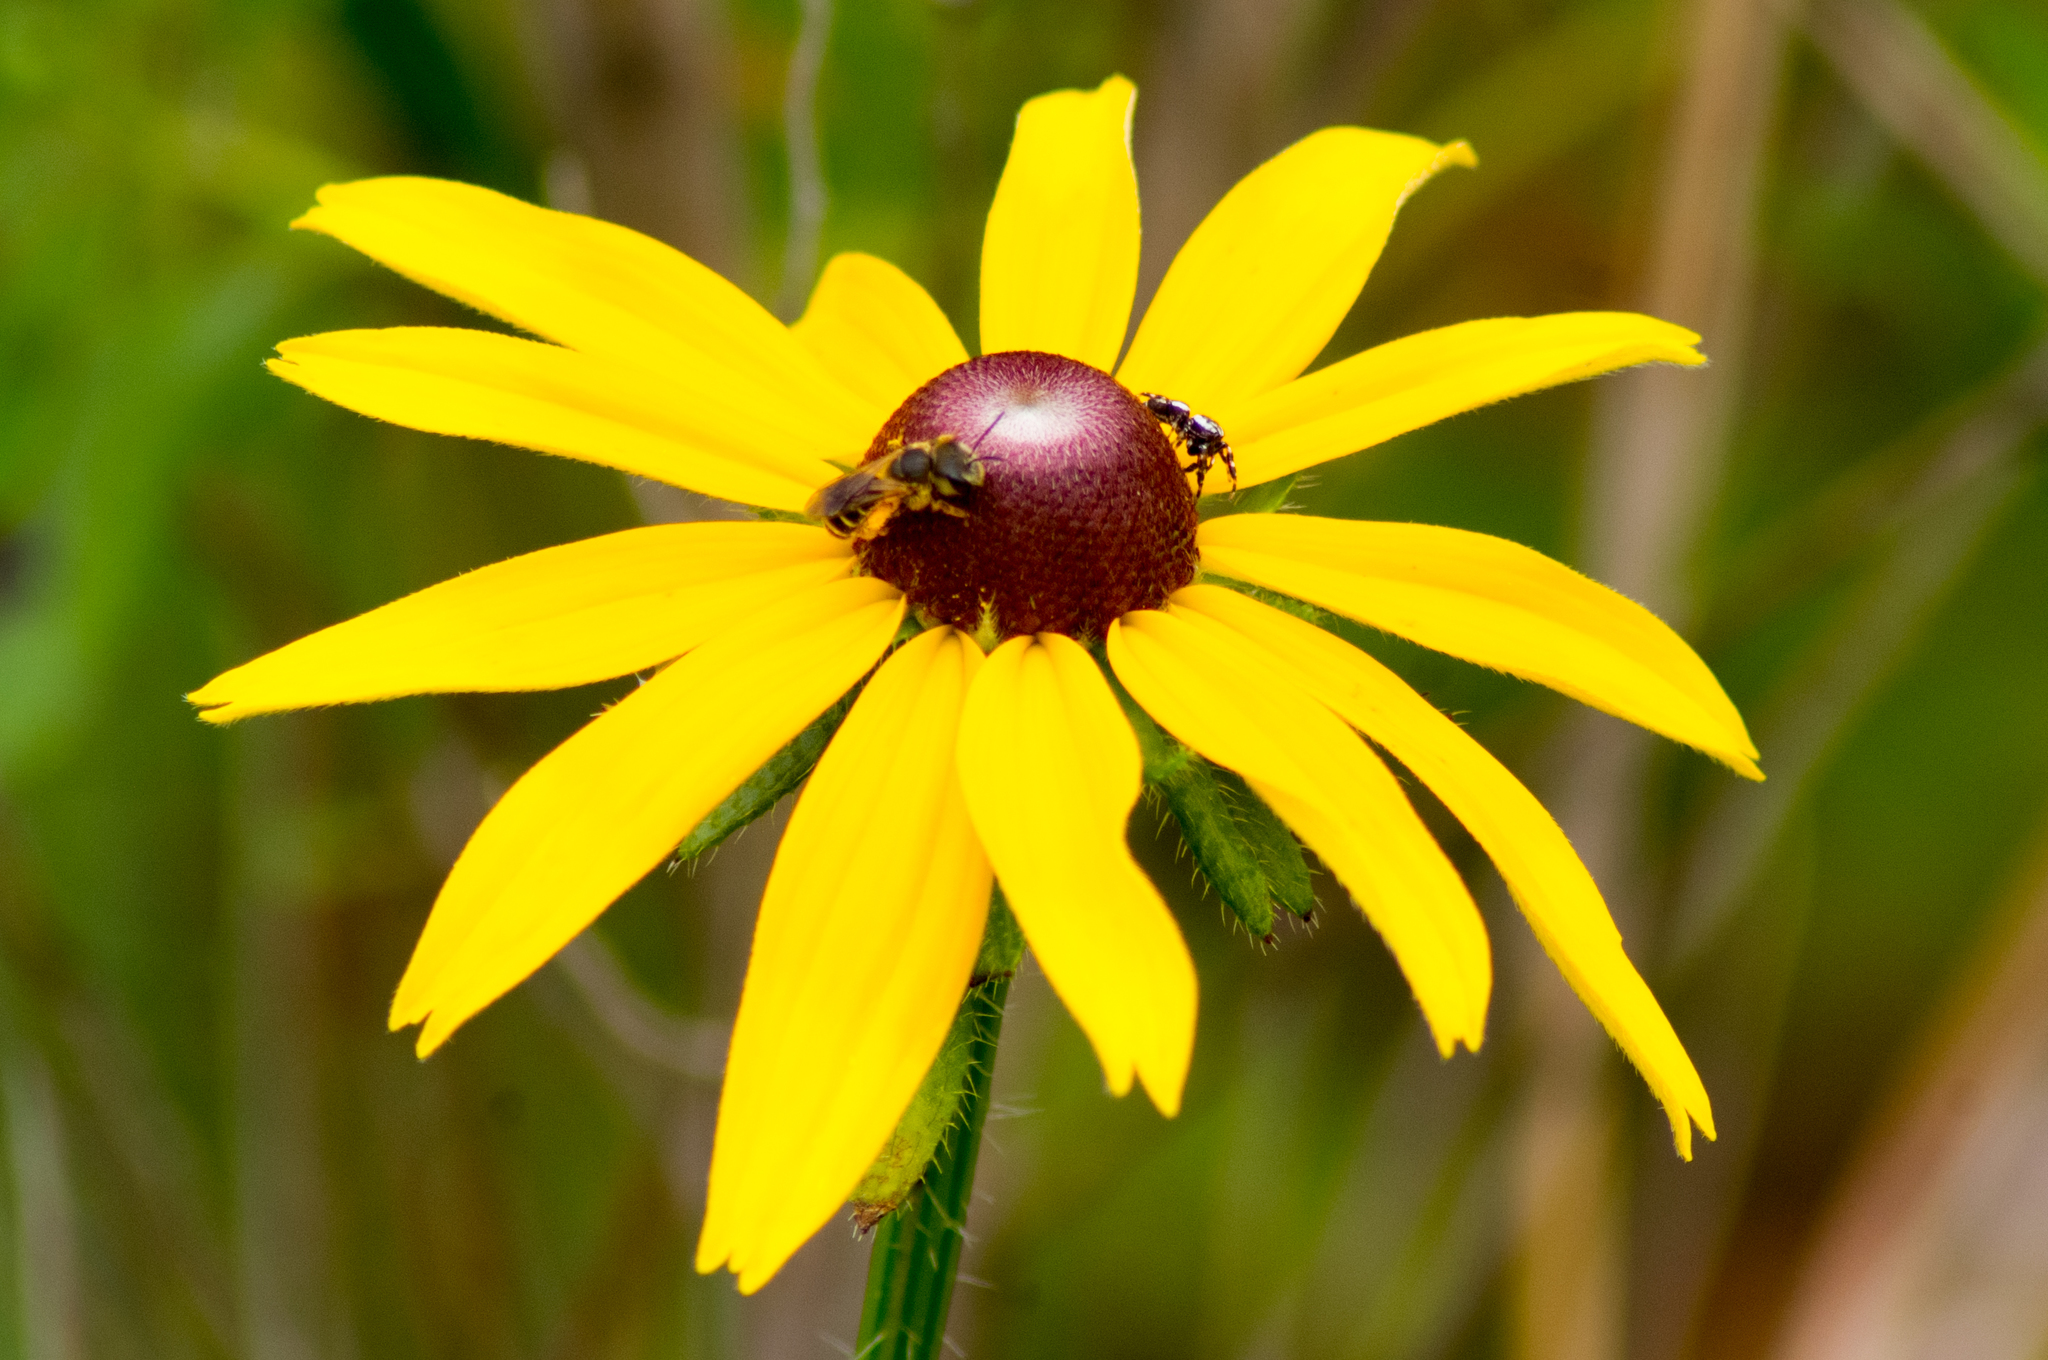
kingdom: Plantae
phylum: Tracheophyta
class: Magnoliopsida
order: Asterales
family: Asteraceae
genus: Rudbeckia
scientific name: Rudbeckia hirta
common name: Black-eyed-susan
